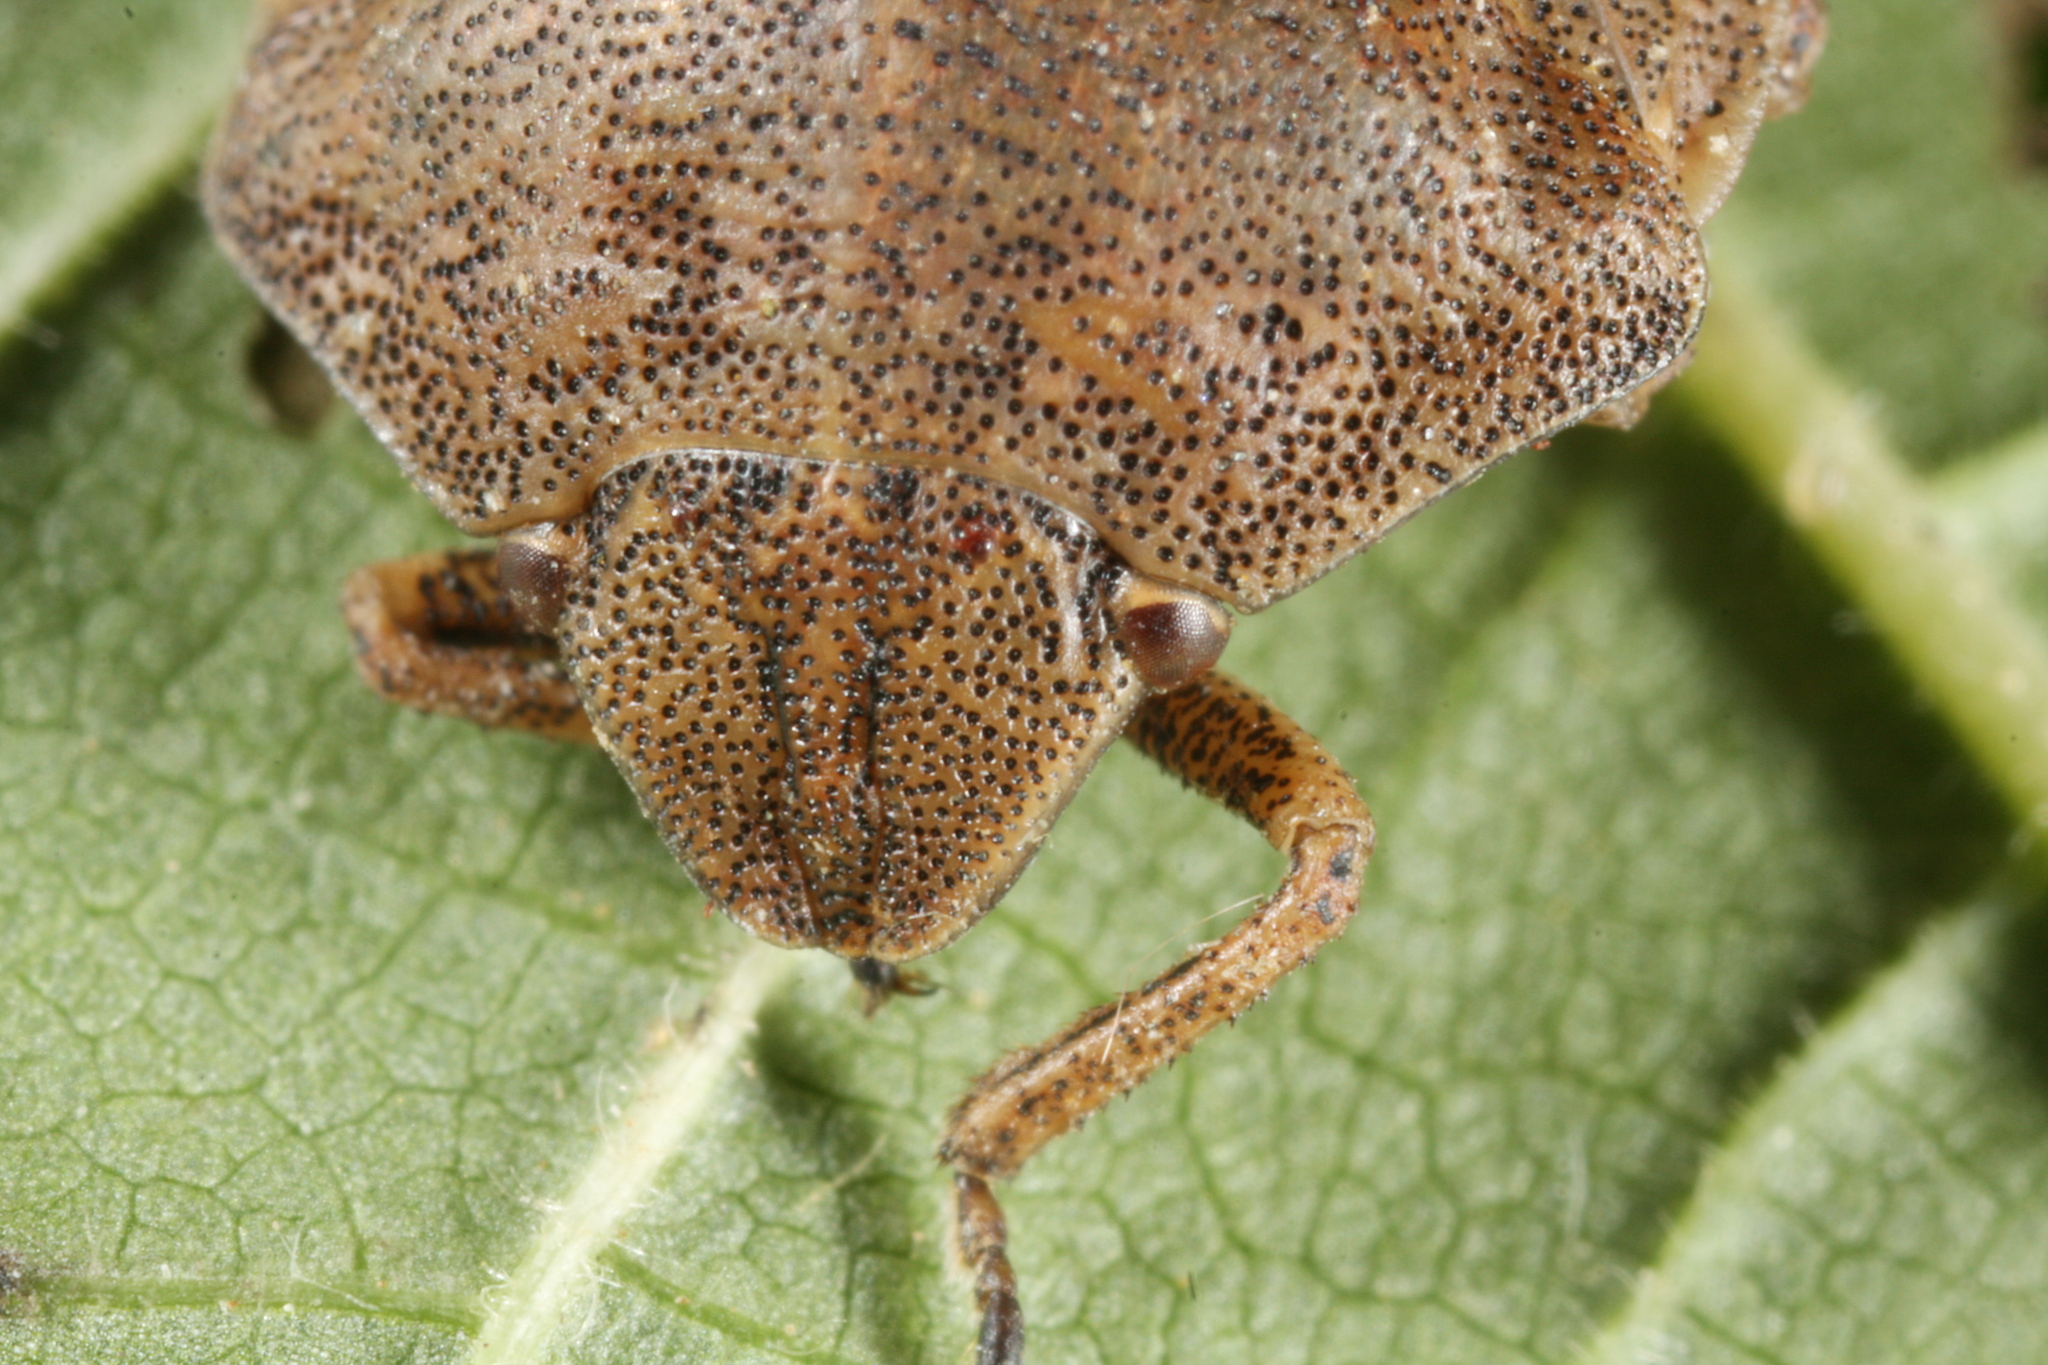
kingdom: Animalia
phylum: Arthropoda
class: Insecta
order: Hemiptera
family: Scutelleridae
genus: Eurygaster
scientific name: Eurygaster testudinaria
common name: Tortoise bug
